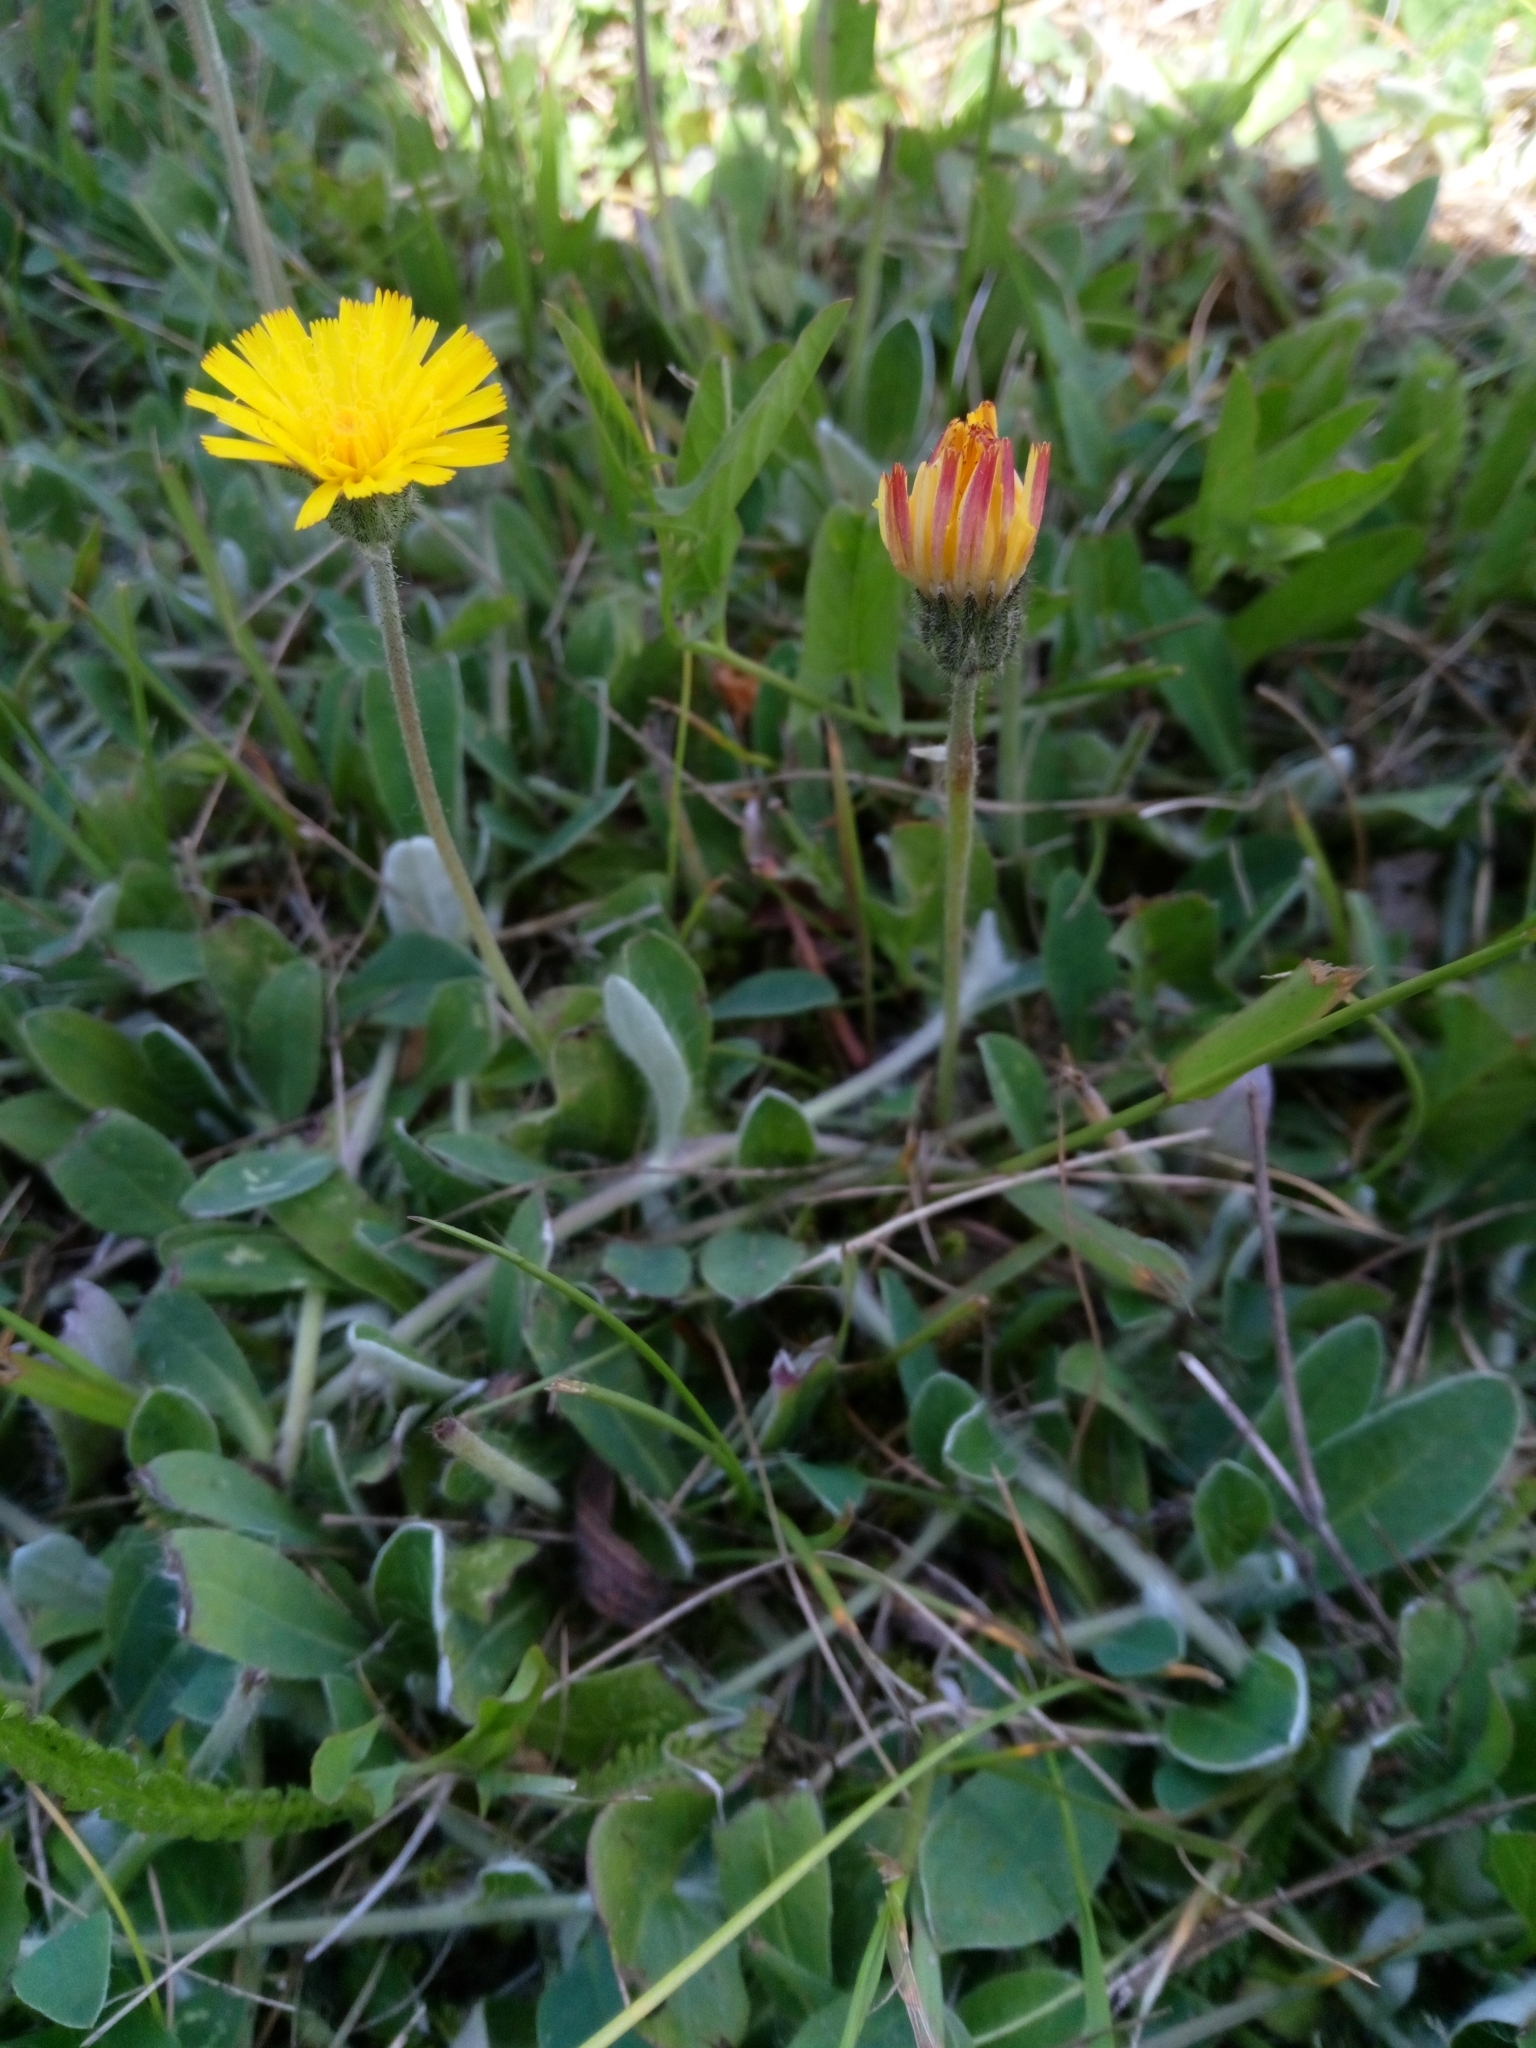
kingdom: Plantae
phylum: Tracheophyta
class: Magnoliopsida
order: Asterales
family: Asteraceae
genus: Pilosella
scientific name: Pilosella officinarum
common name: Mouse-ear hawkweed
